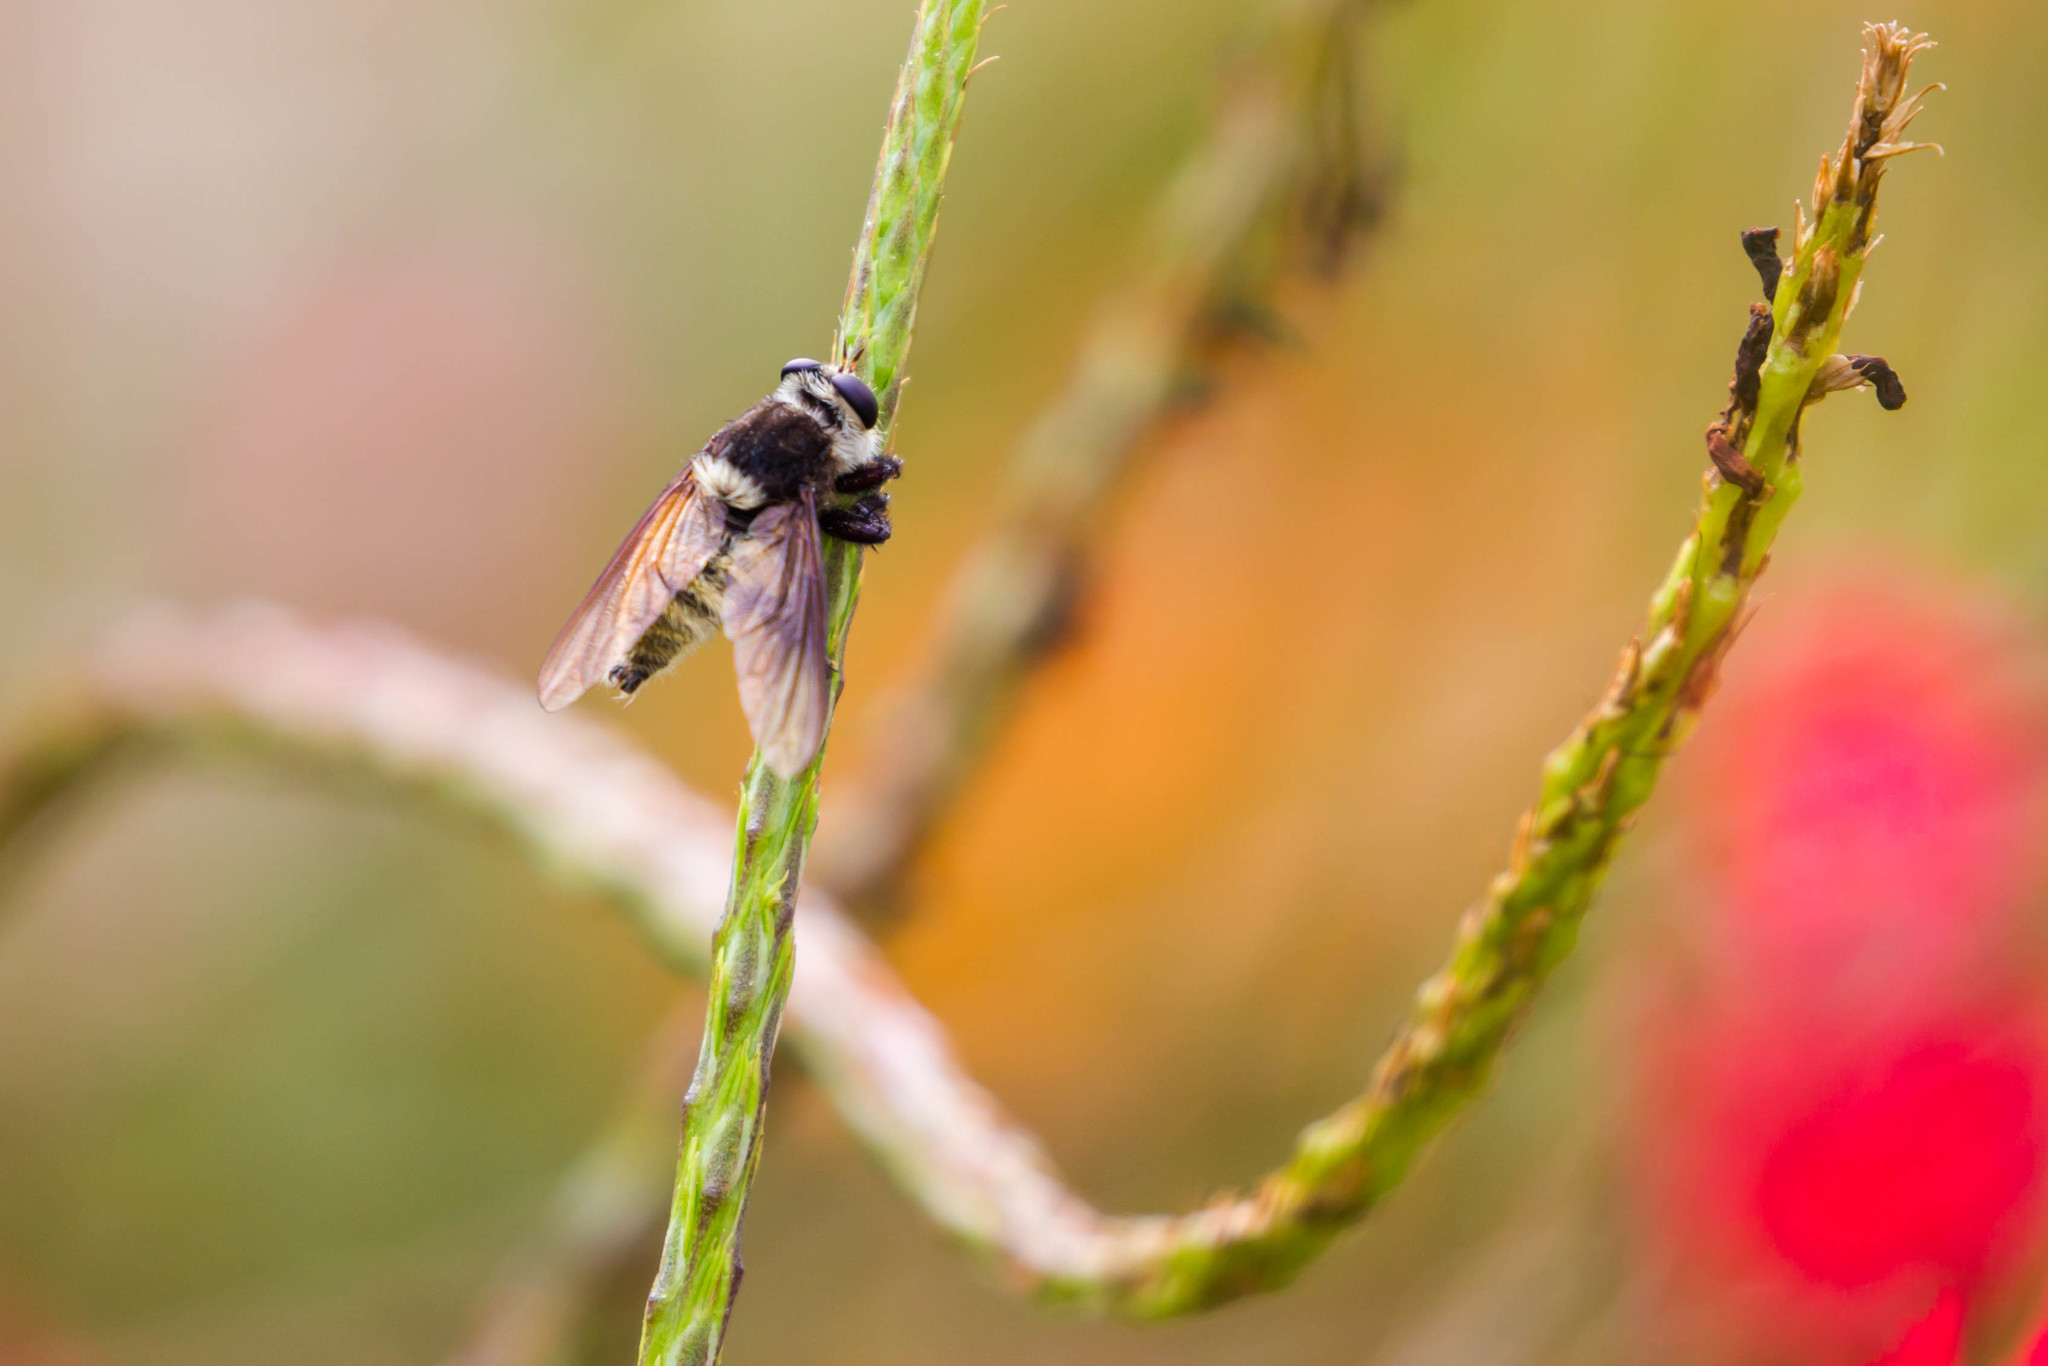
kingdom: Animalia
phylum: Arthropoda
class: Insecta
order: Diptera
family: Asilidae
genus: Mallophora
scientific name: Mallophora fautrix
